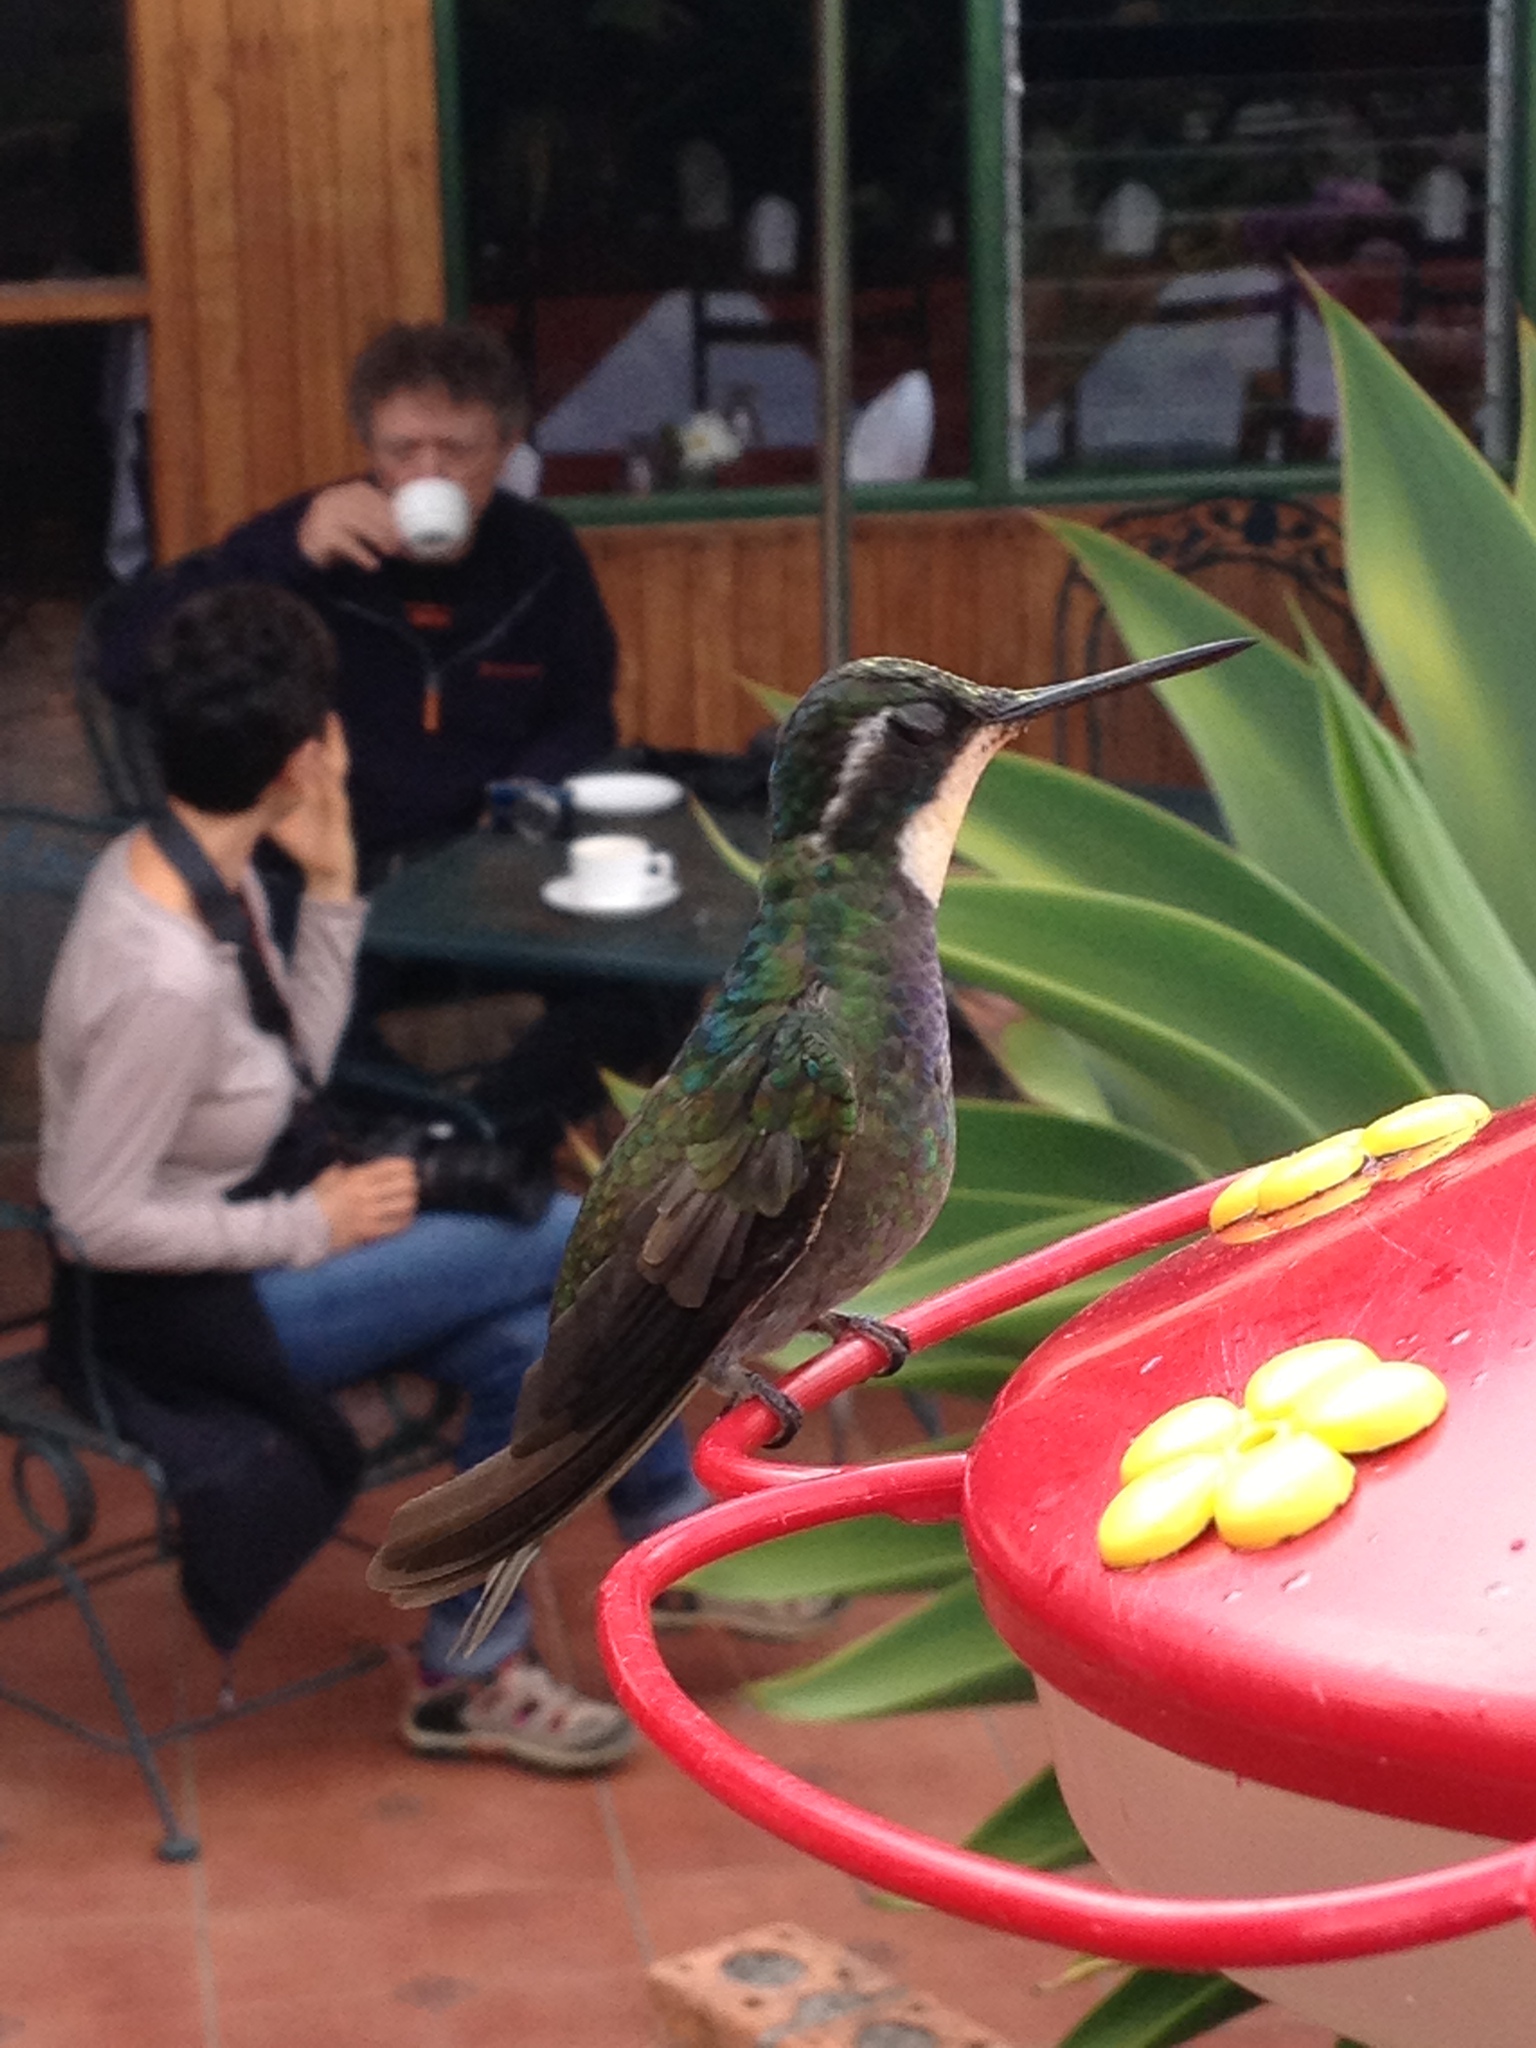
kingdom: Animalia
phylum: Chordata
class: Aves
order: Apodiformes
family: Trochilidae
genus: Lampornis
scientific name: Lampornis castaneoventris
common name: White-throated mountain-gem
